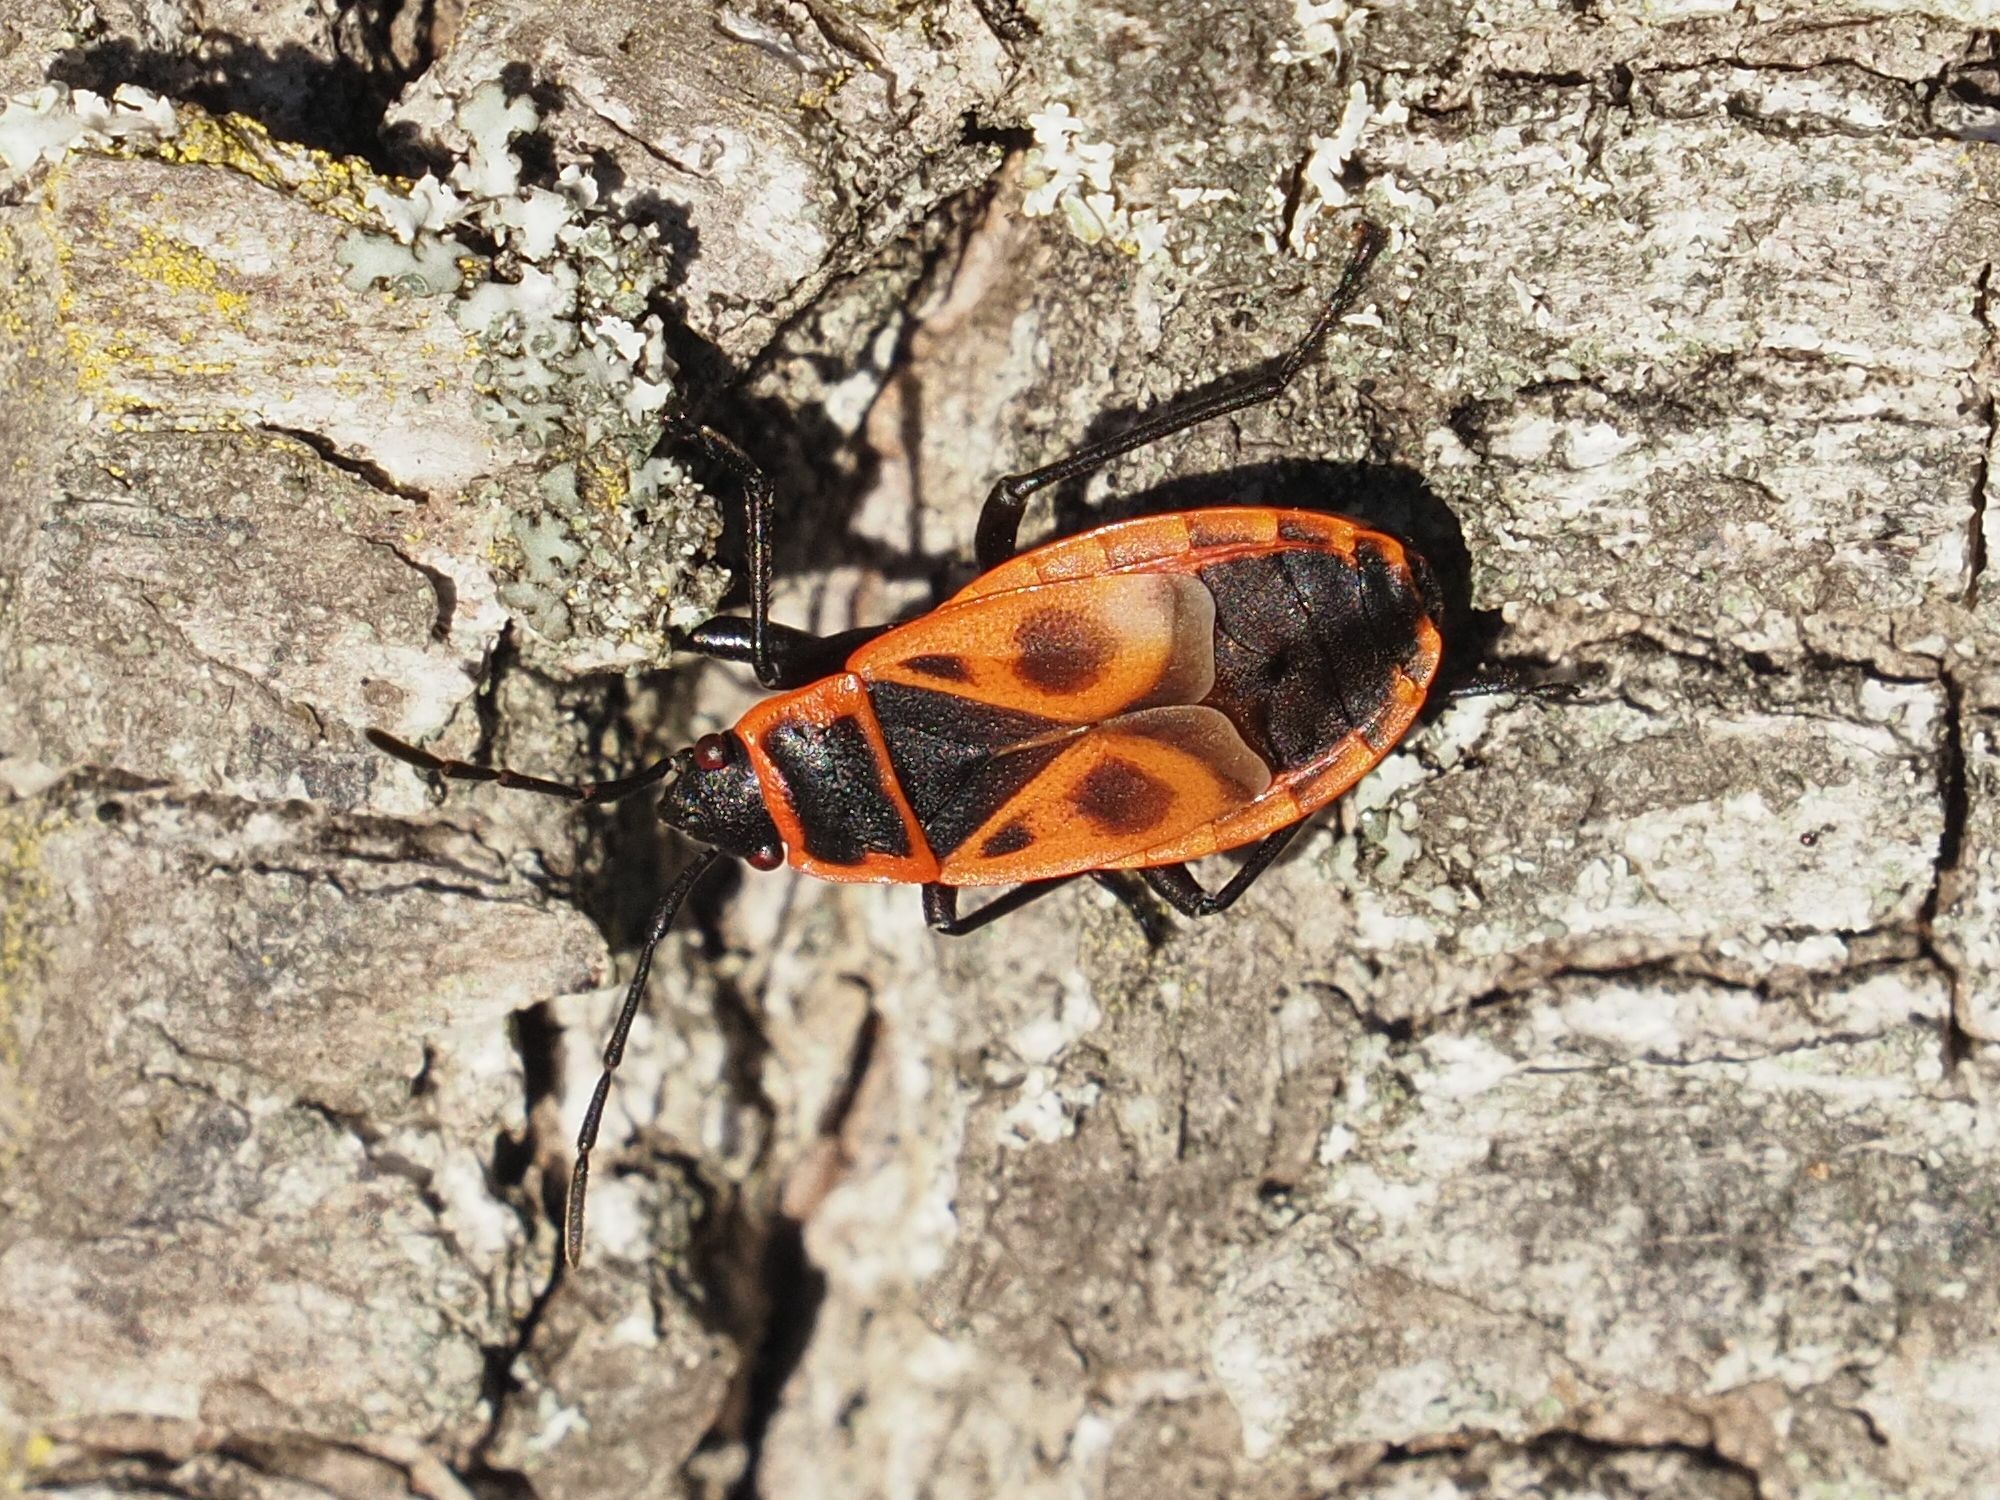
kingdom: Animalia
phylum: Arthropoda
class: Insecta
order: Hemiptera
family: Pyrrhocoridae
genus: Pyrrhocoris
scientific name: Pyrrhocoris apterus
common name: Firebug
